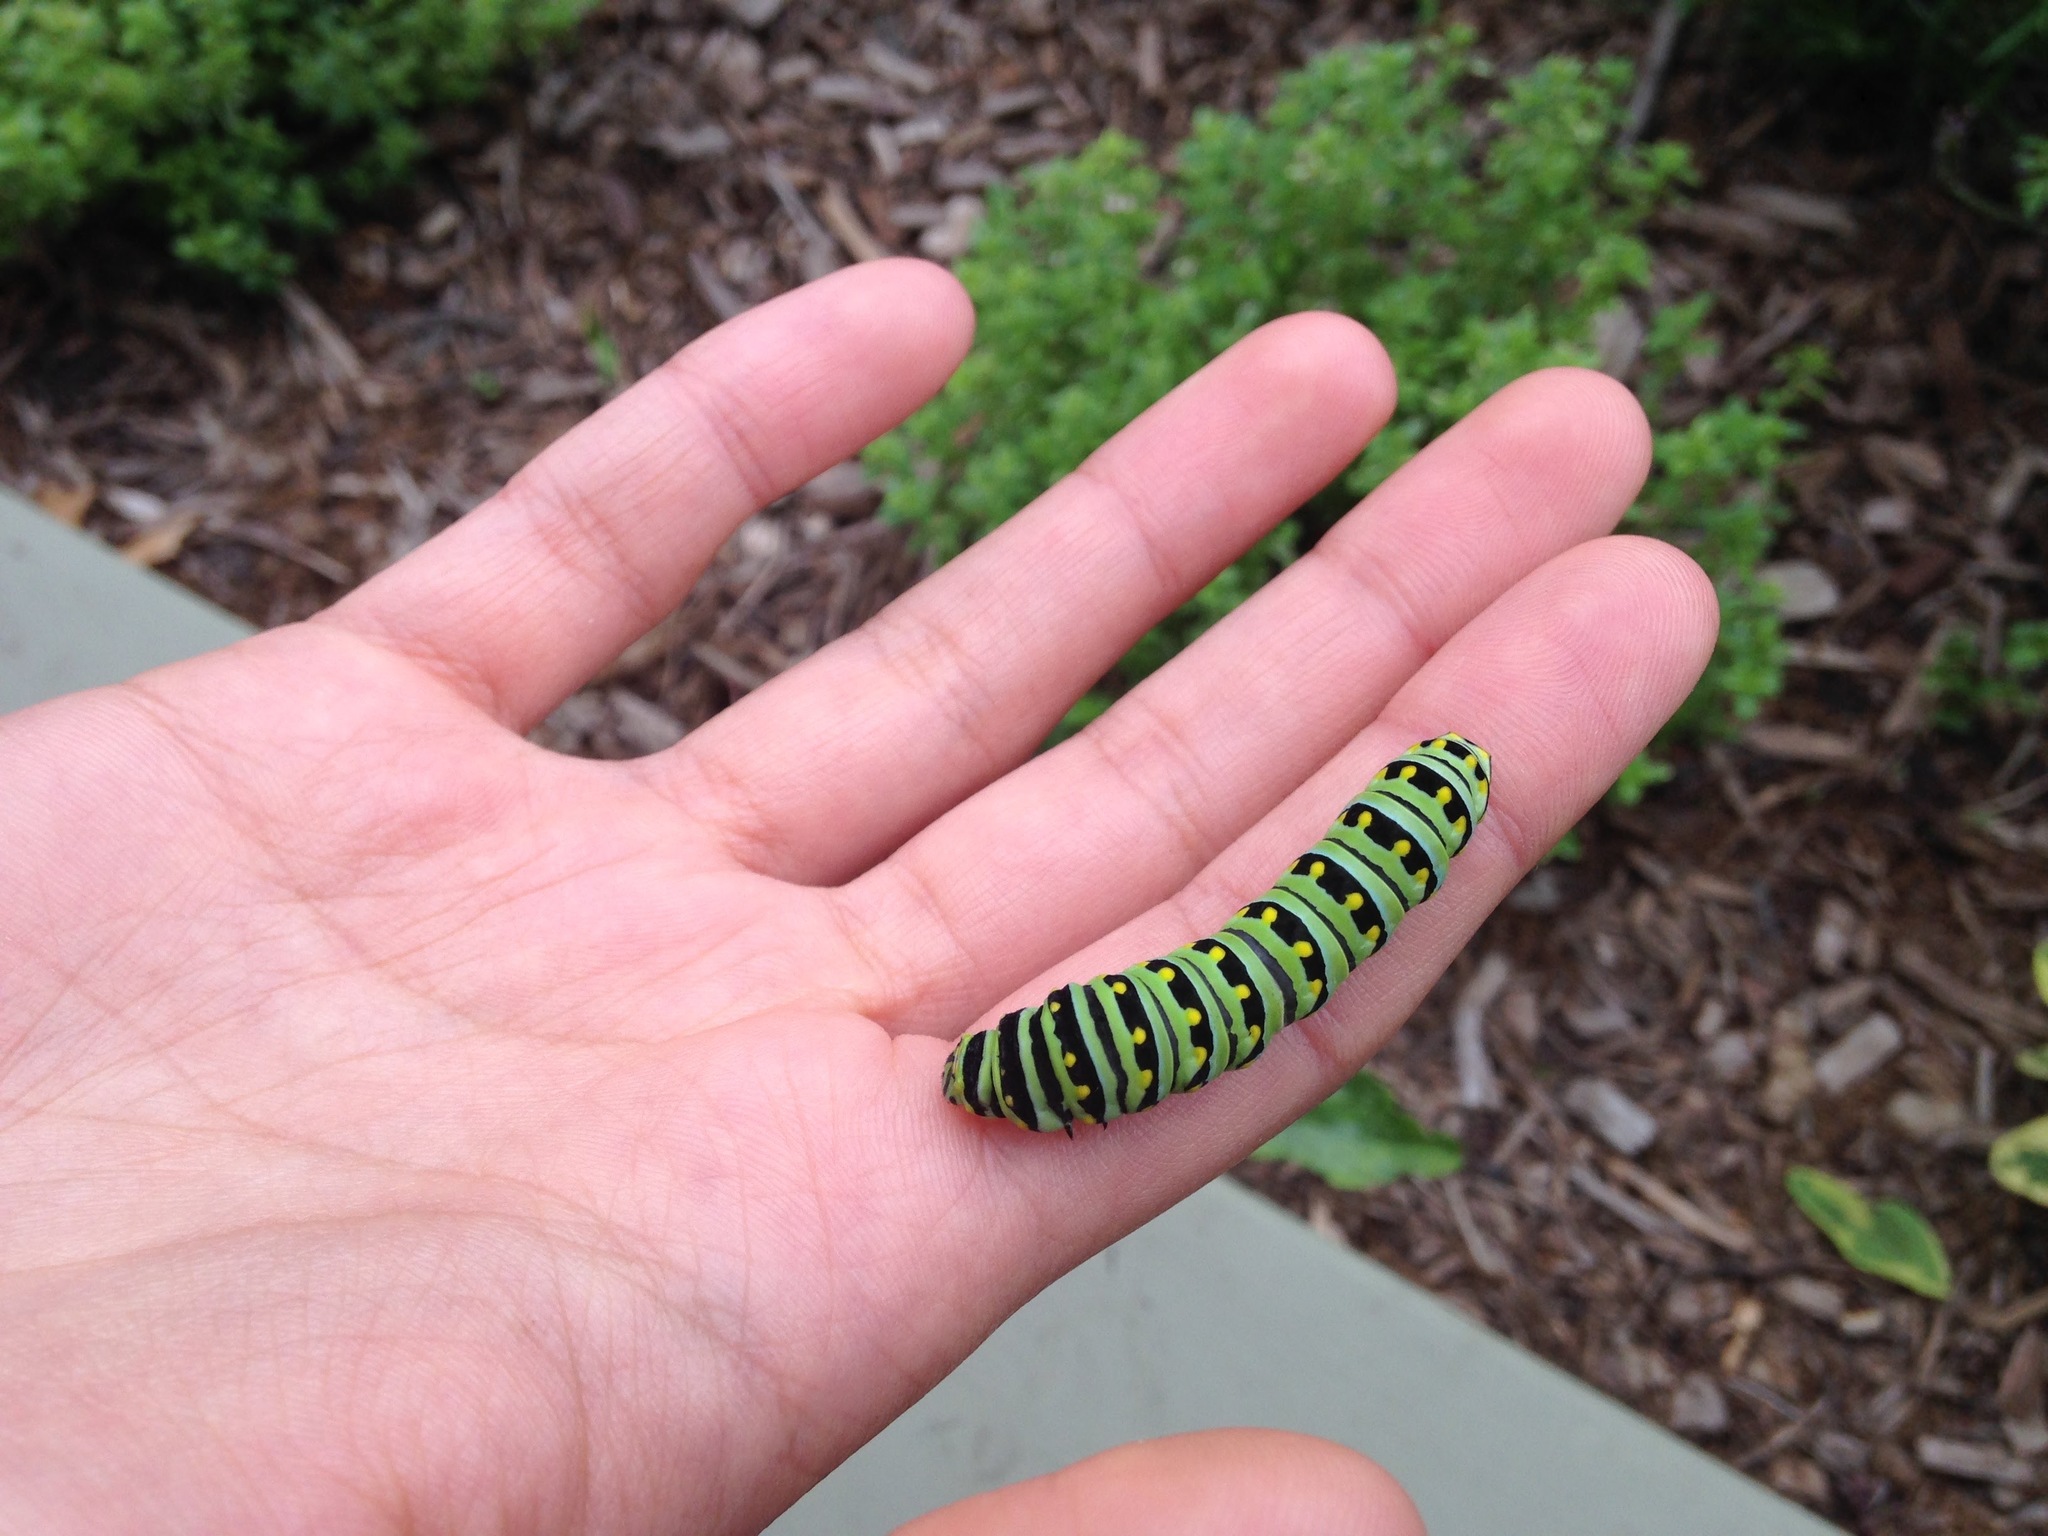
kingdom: Animalia
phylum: Arthropoda
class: Insecta
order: Lepidoptera
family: Papilionidae
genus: Papilio
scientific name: Papilio polyxenes
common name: Black swallowtail
